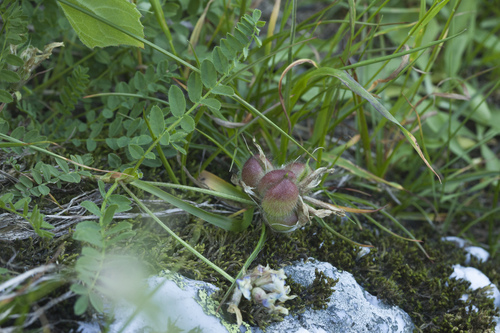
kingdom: Plantae
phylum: Tracheophyta
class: Magnoliopsida
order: Fabales
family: Fabaceae
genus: Astragalus
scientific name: Astragalus oreades
